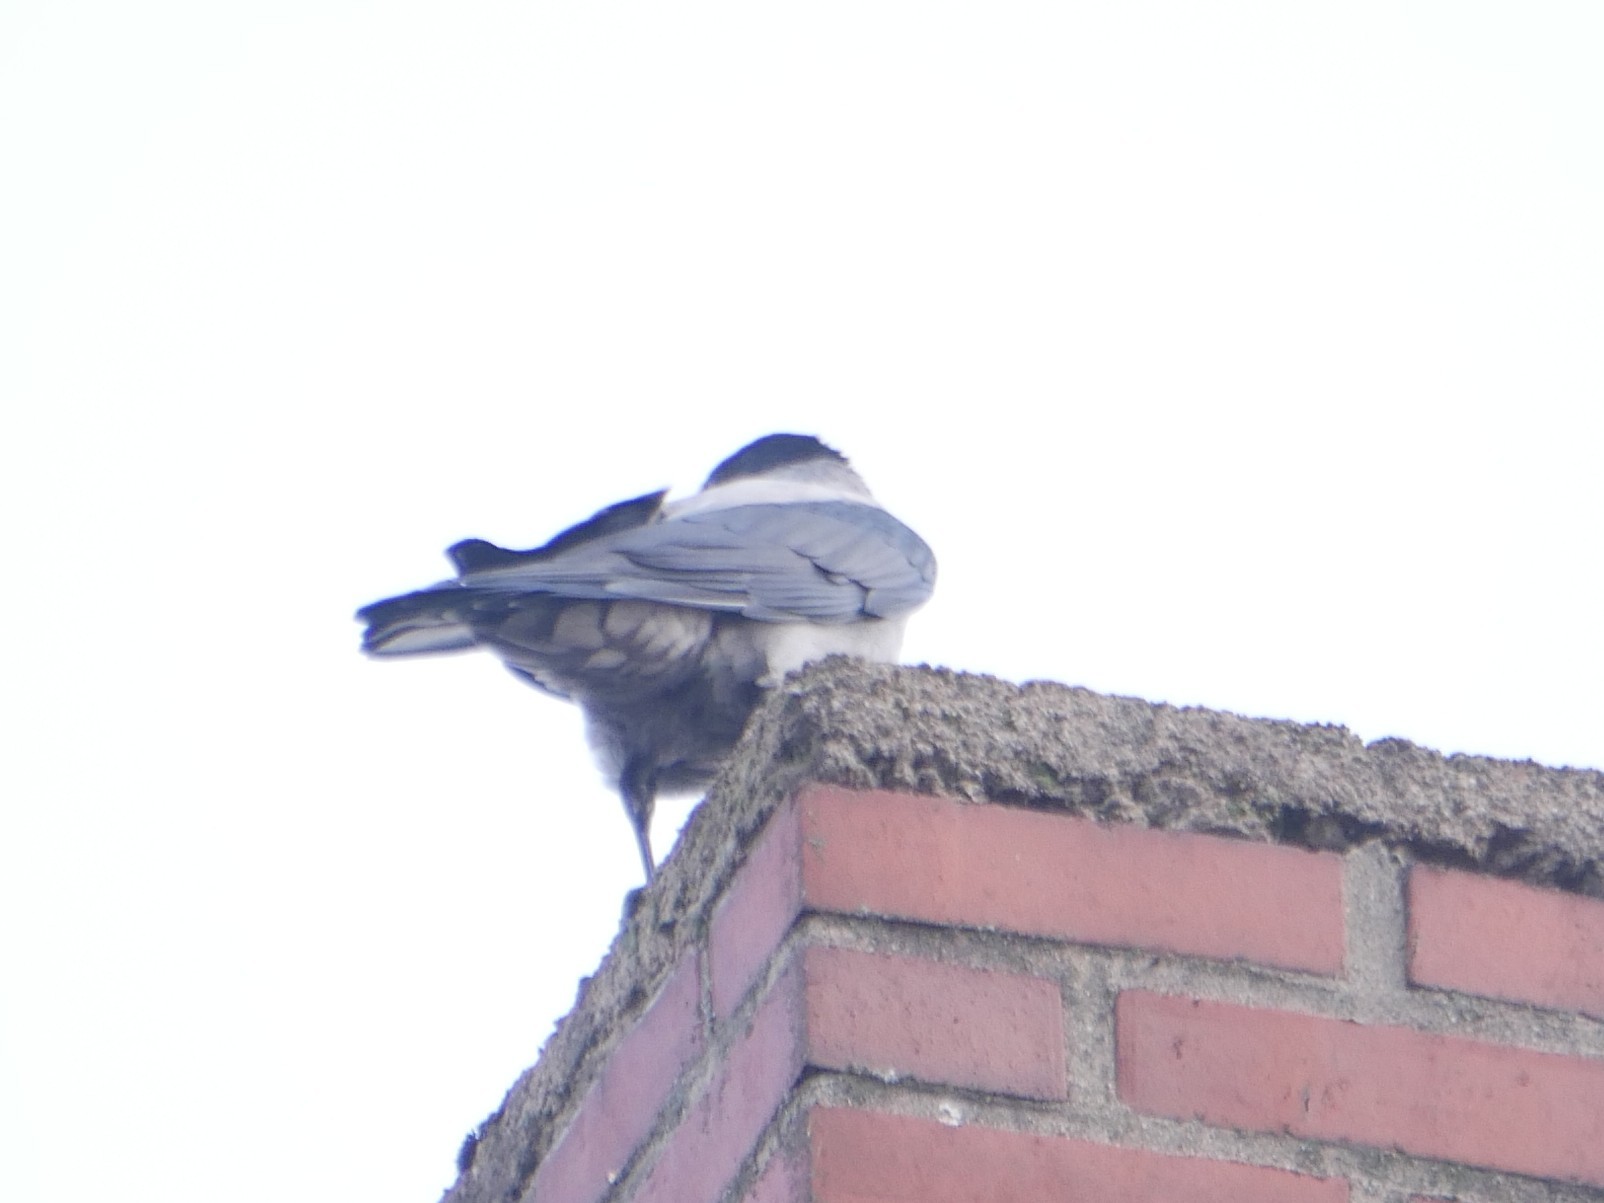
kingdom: Animalia
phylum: Chordata
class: Aves
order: Passeriformes
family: Corvidae
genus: Corvus
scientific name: Corvus cornix
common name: Hooded crow
